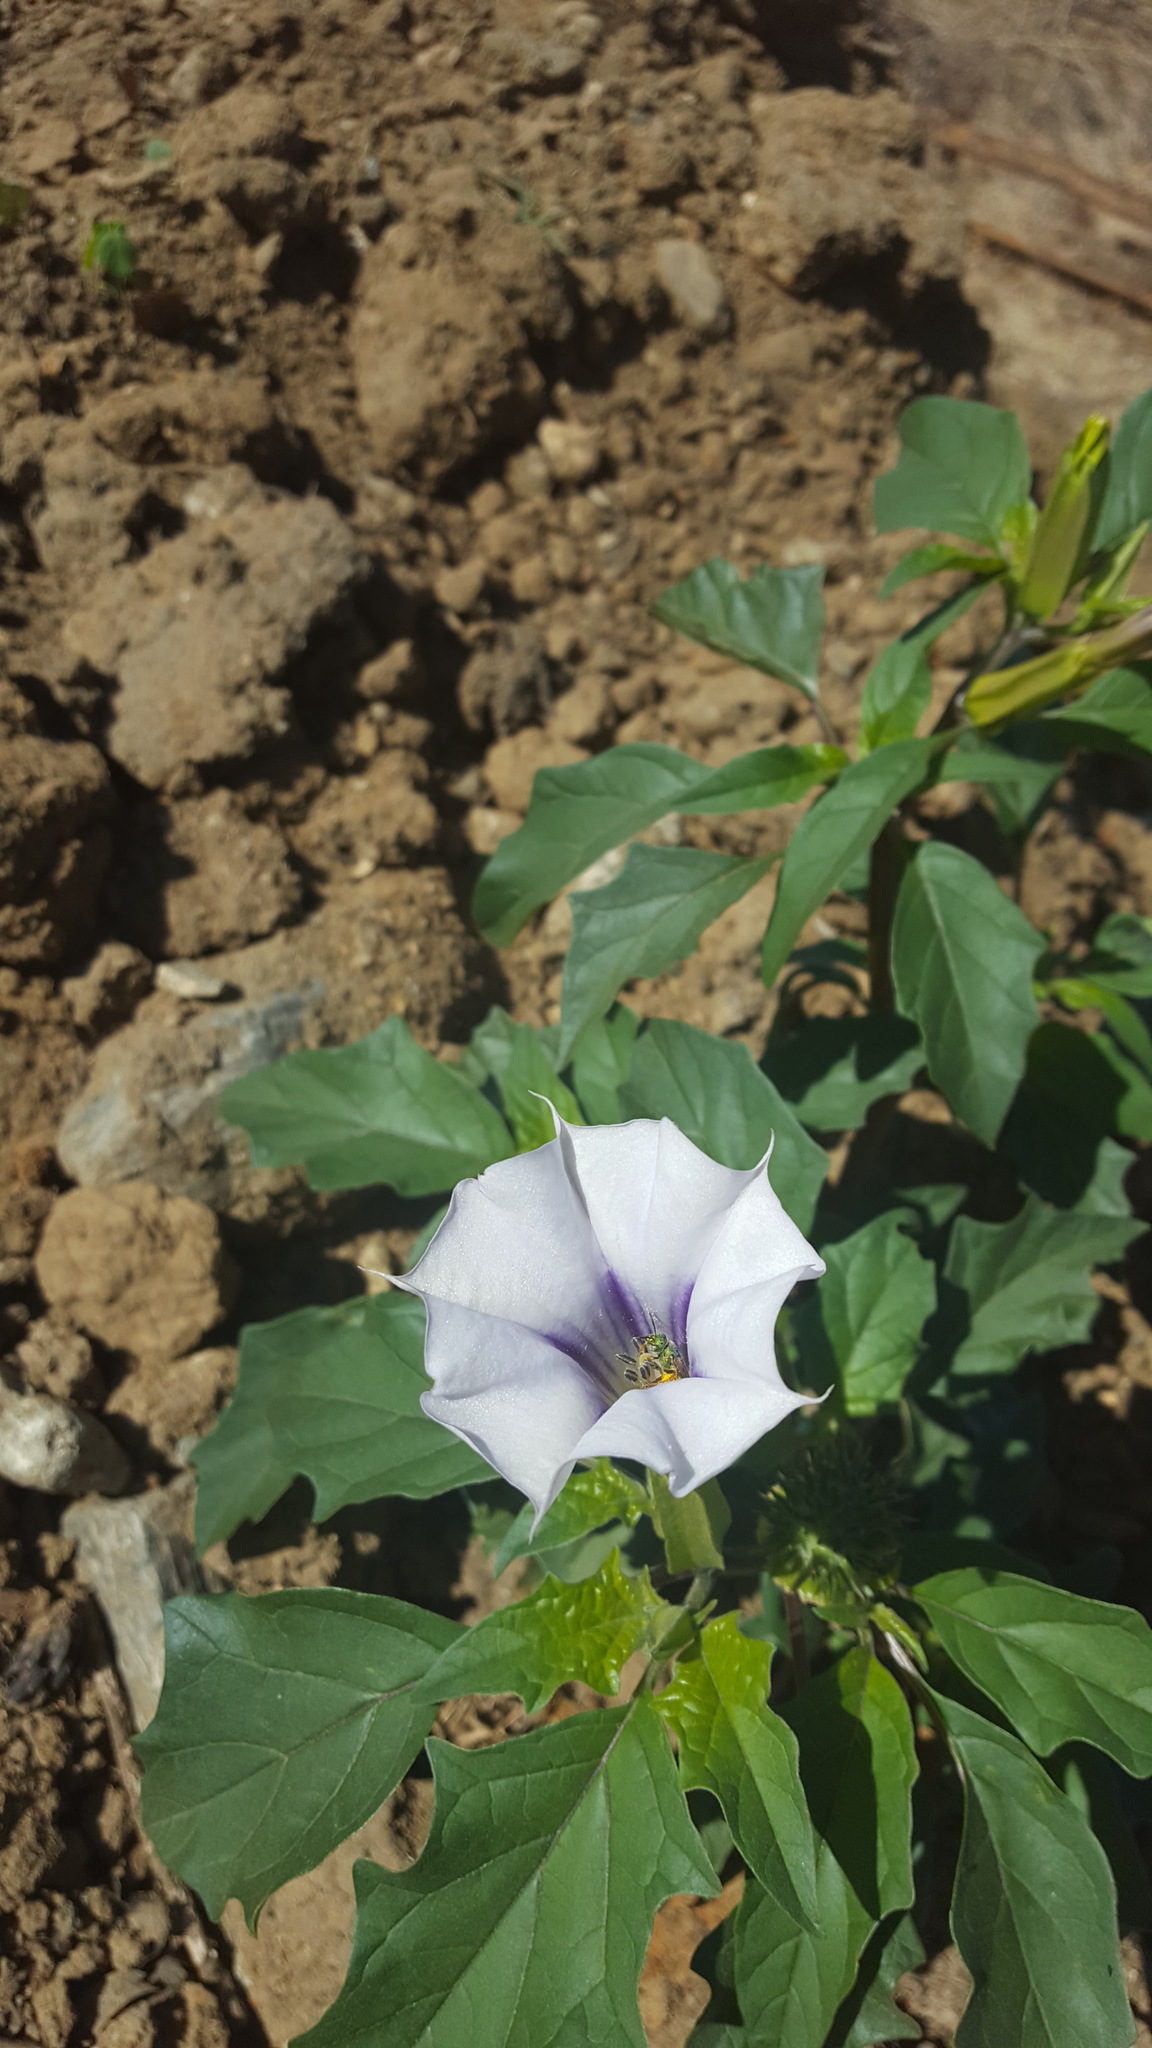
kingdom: Plantae
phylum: Tracheophyta
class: Magnoliopsida
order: Solanales
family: Solanaceae
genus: Datura
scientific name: Datura stramonium
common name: Thorn-apple
